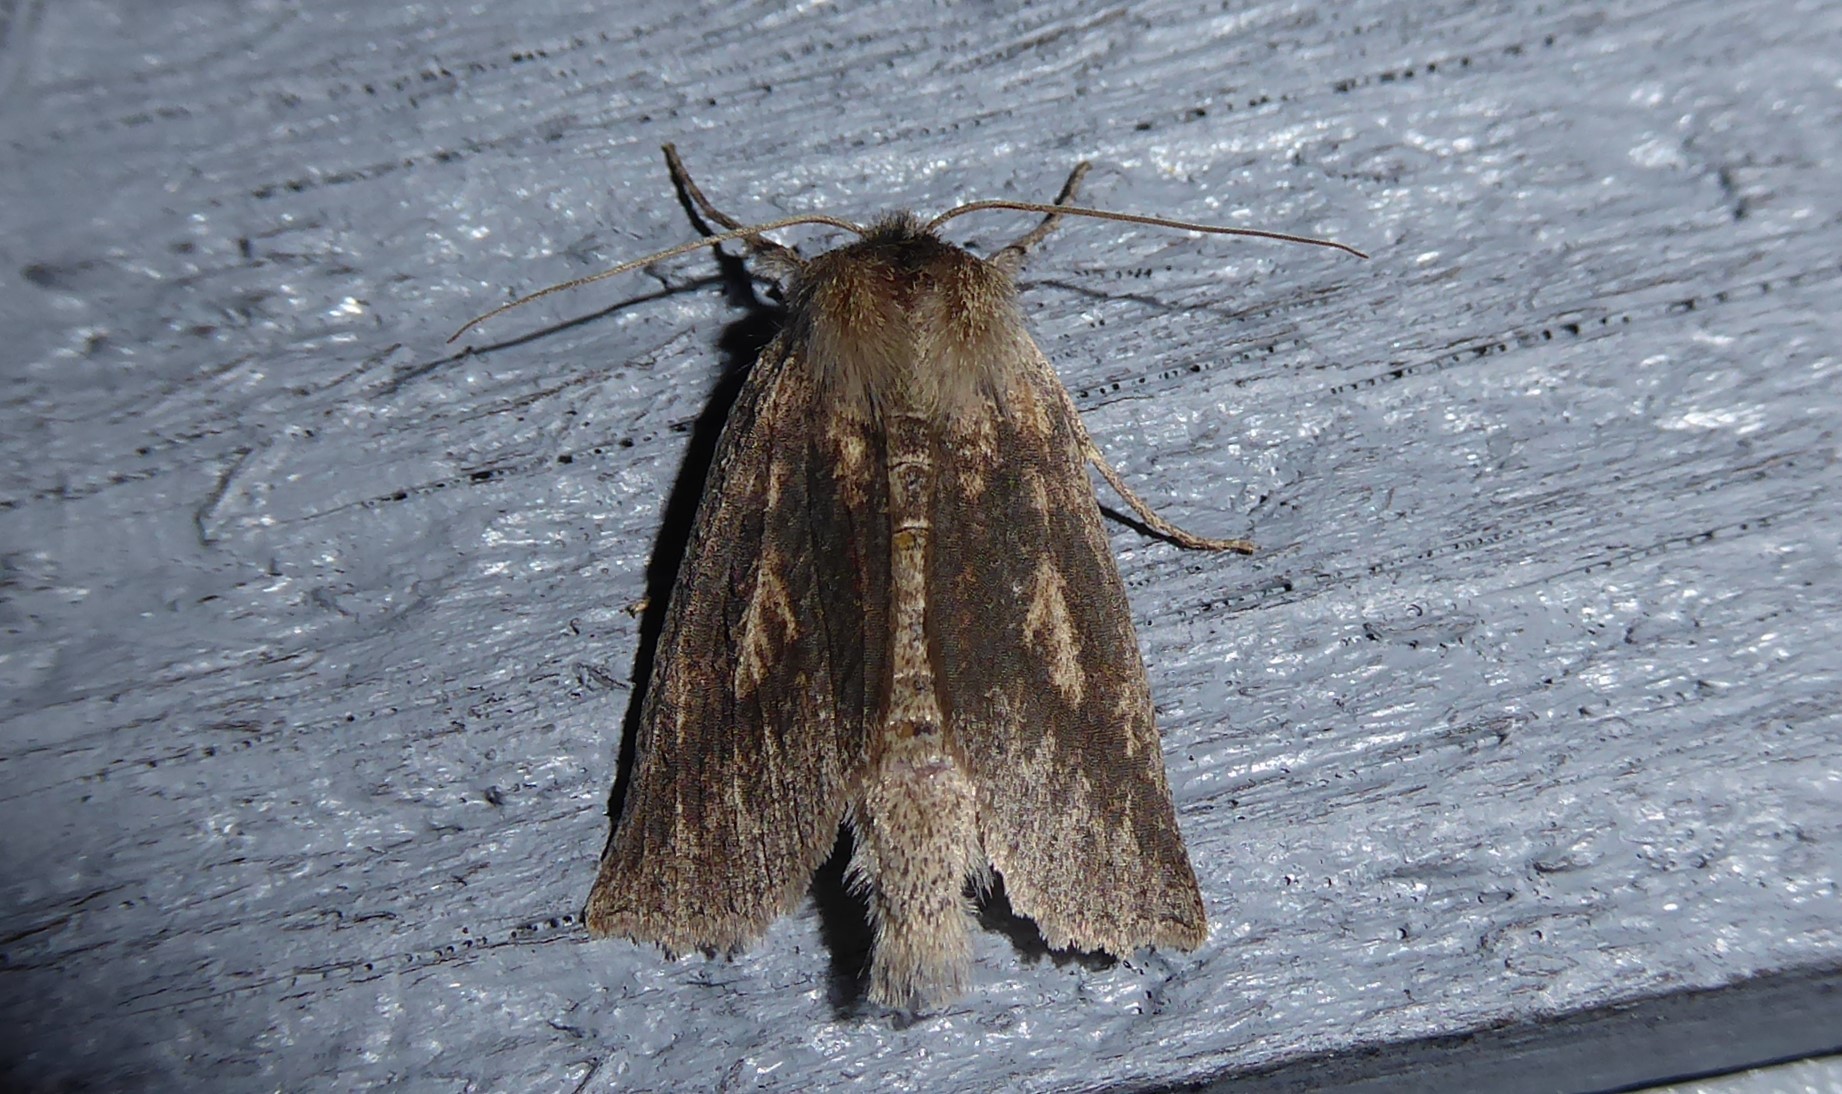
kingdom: Animalia
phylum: Arthropoda
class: Insecta
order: Lepidoptera
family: Geometridae
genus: Declana
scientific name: Declana leptomera
